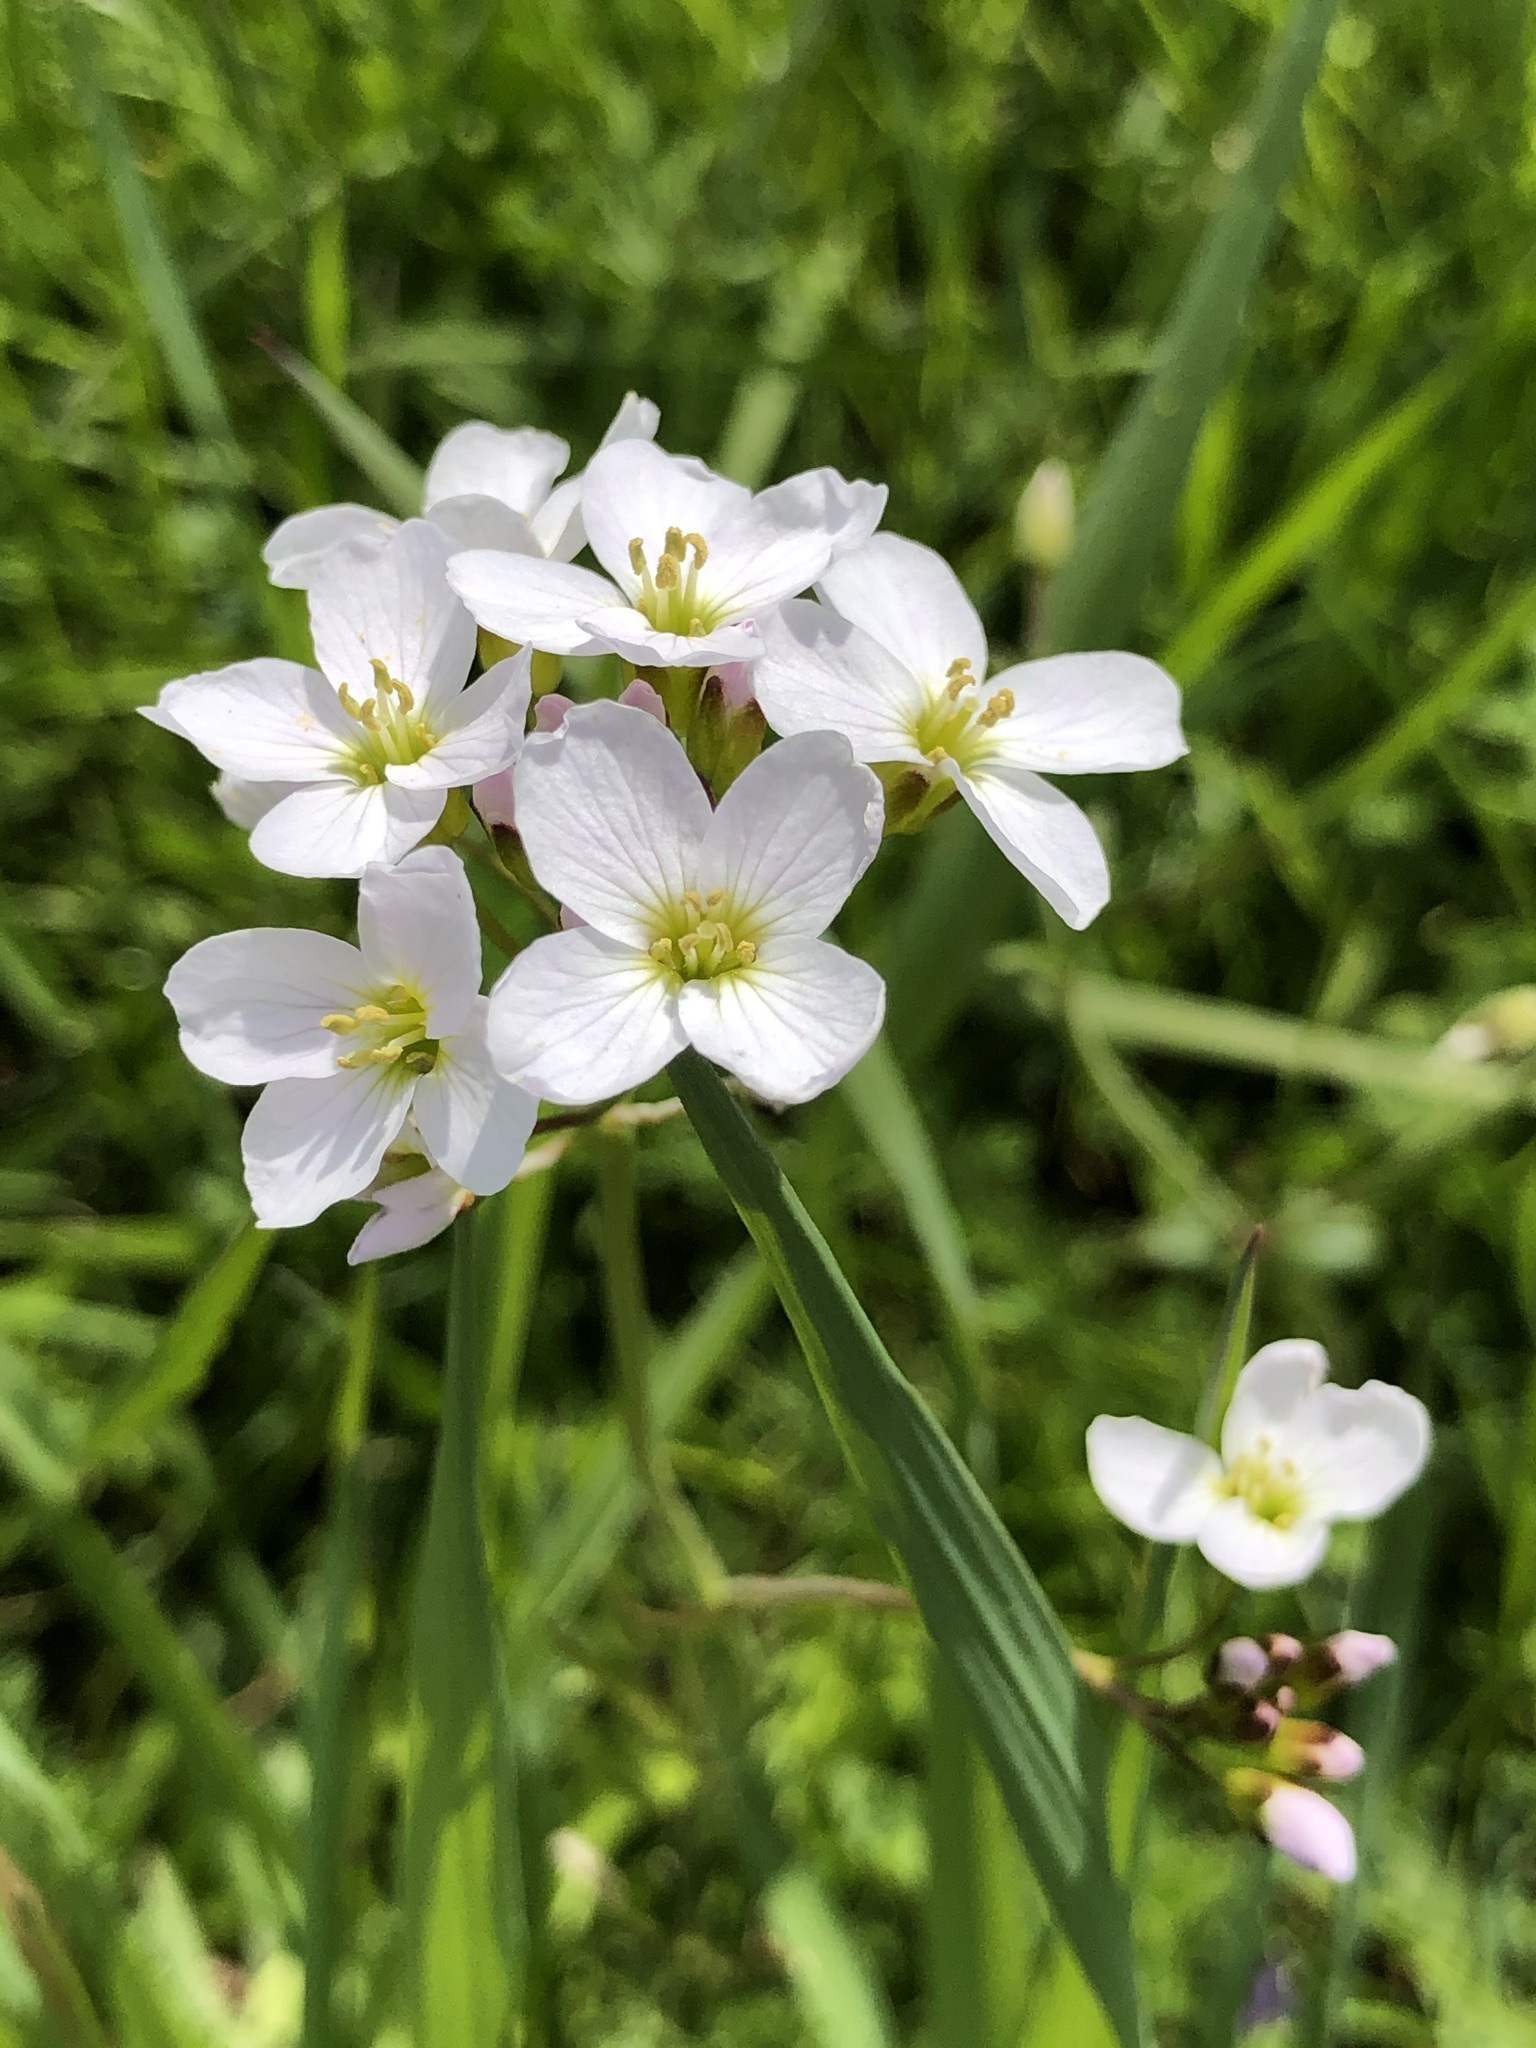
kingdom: Plantae
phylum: Tracheophyta
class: Magnoliopsida
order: Brassicales
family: Brassicaceae
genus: Cardamine
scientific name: Cardamine pratensis
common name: Cuckoo flower
